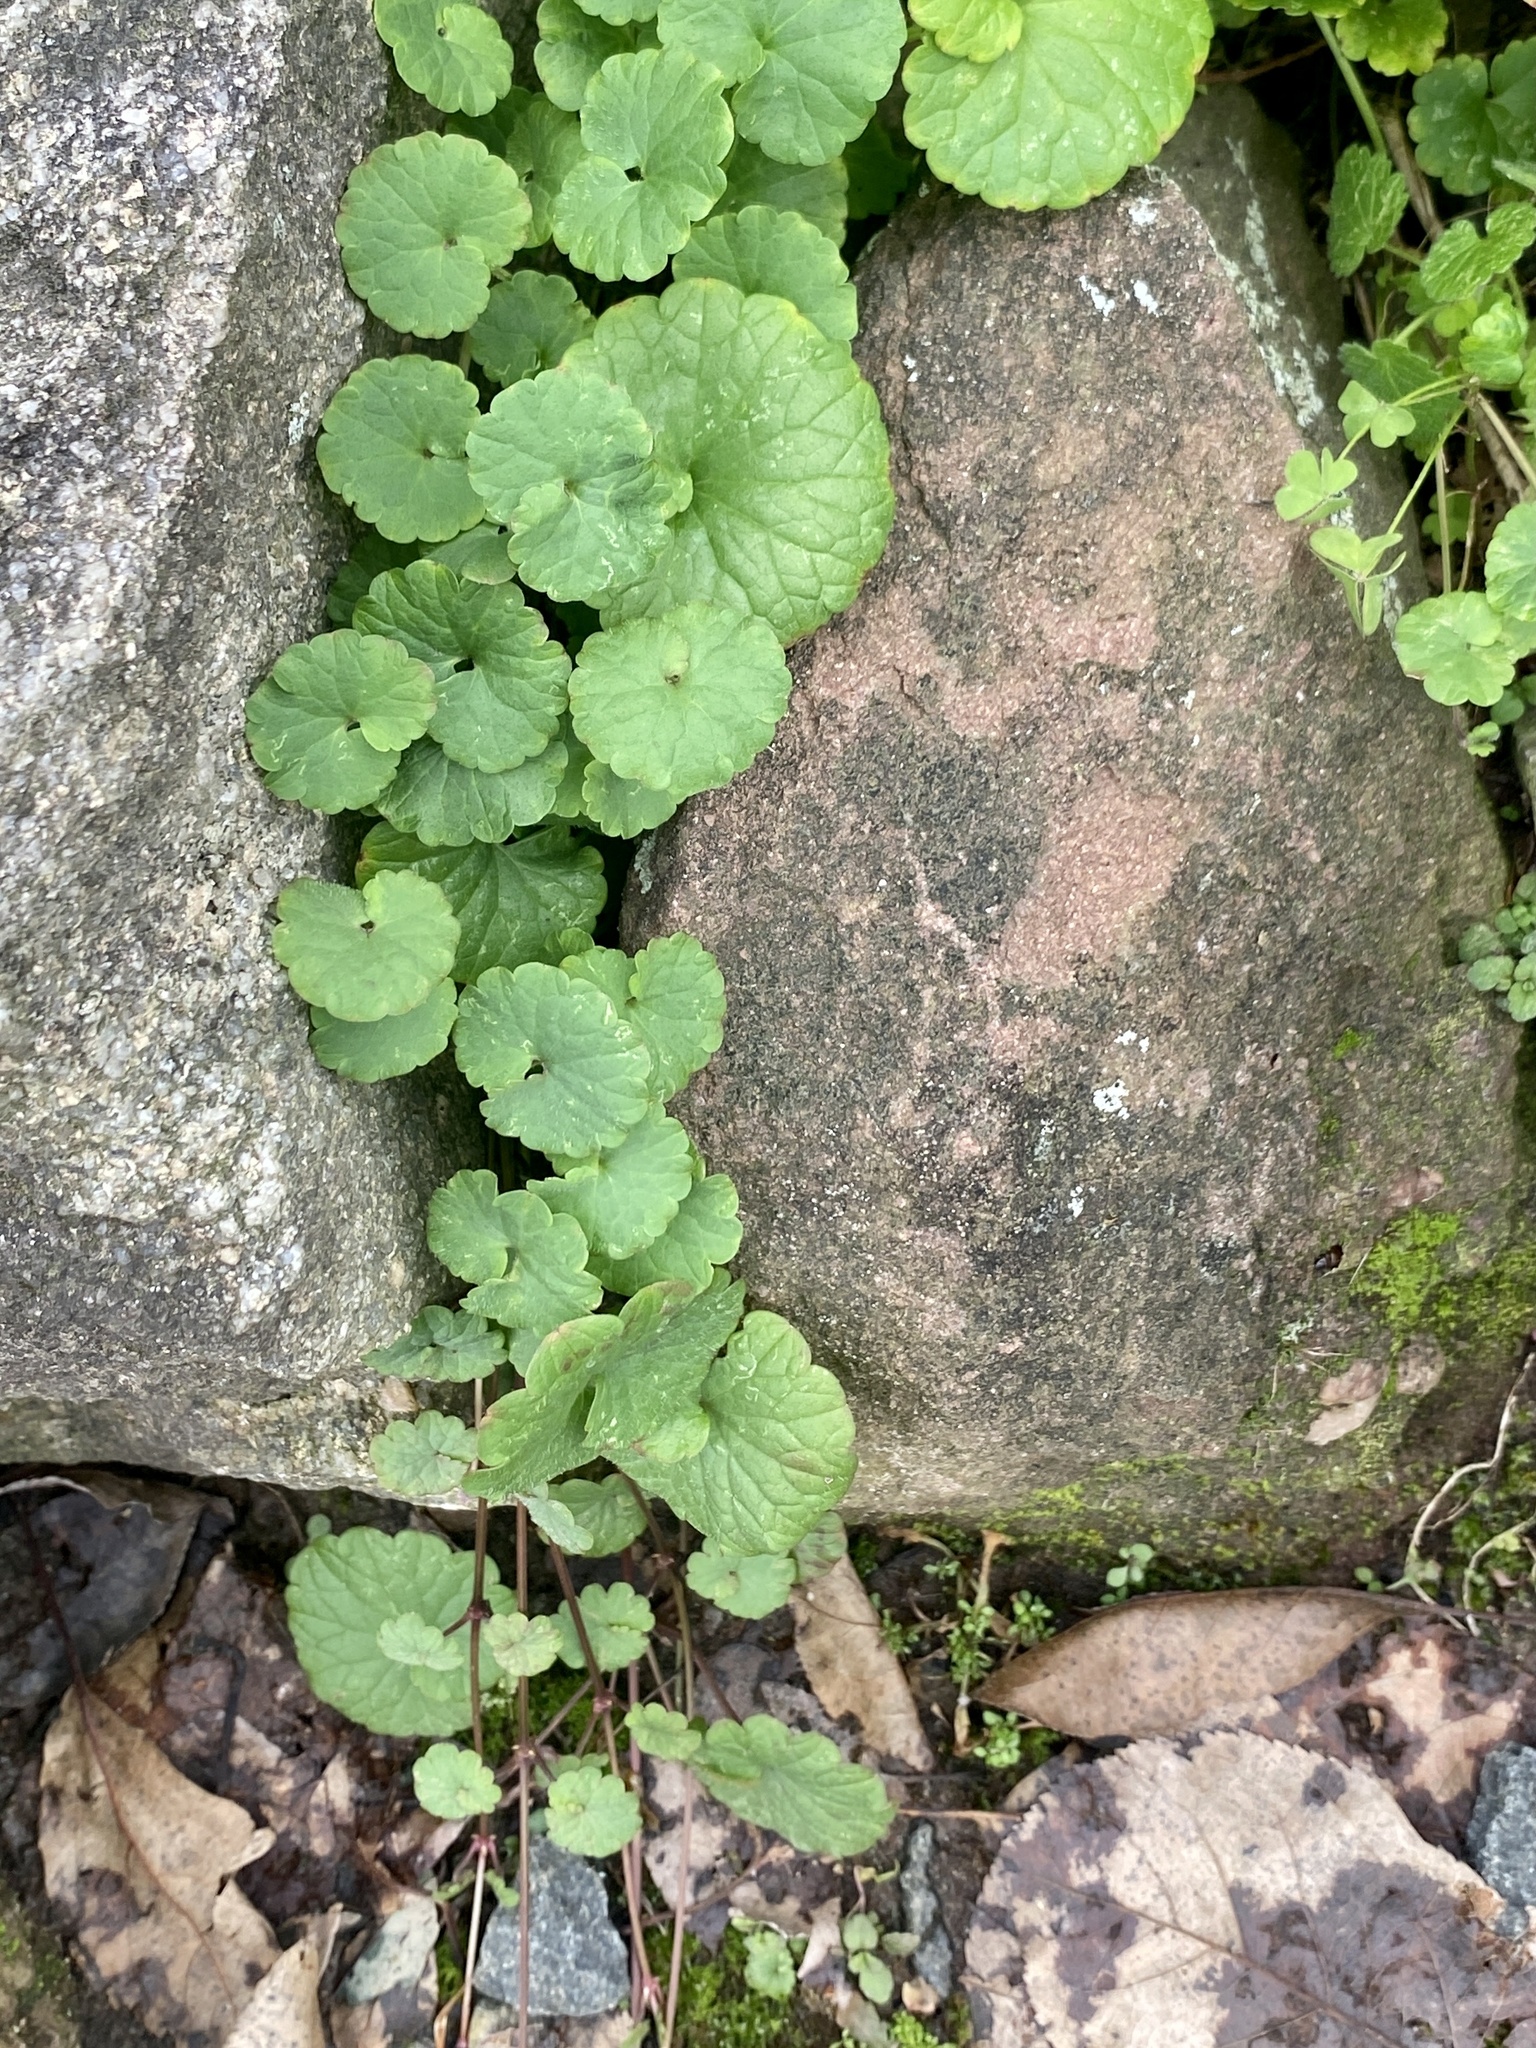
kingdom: Plantae
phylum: Tracheophyta
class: Magnoliopsida
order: Lamiales
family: Lamiaceae
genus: Glechoma
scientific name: Glechoma hederacea
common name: Ground ivy
